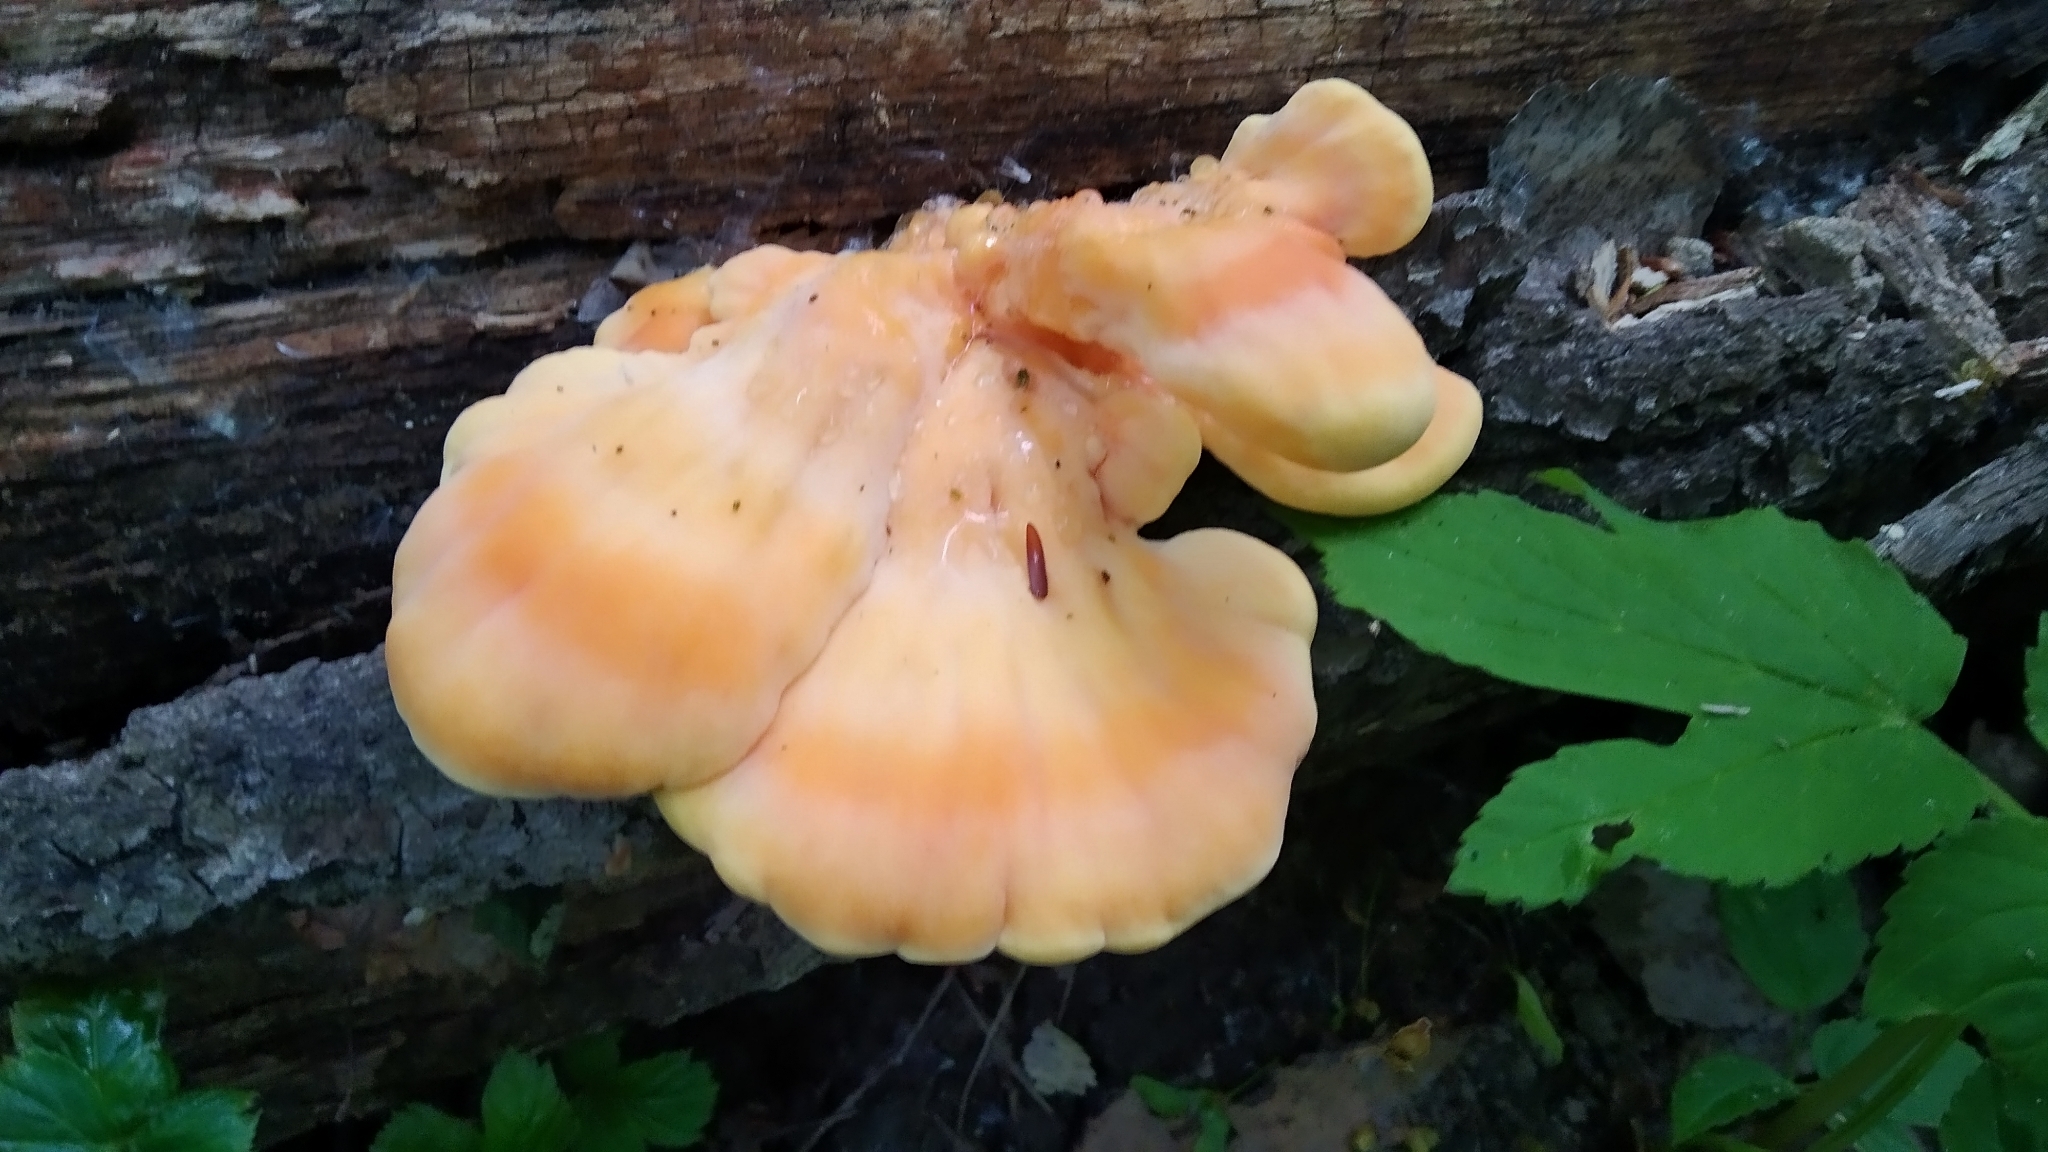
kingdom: Fungi
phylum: Basidiomycota
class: Agaricomycetes
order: Polyporales
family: Laetiporaceae
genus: Laetiporus
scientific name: Laetiporus sulphureus
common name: Chicken of the woods
